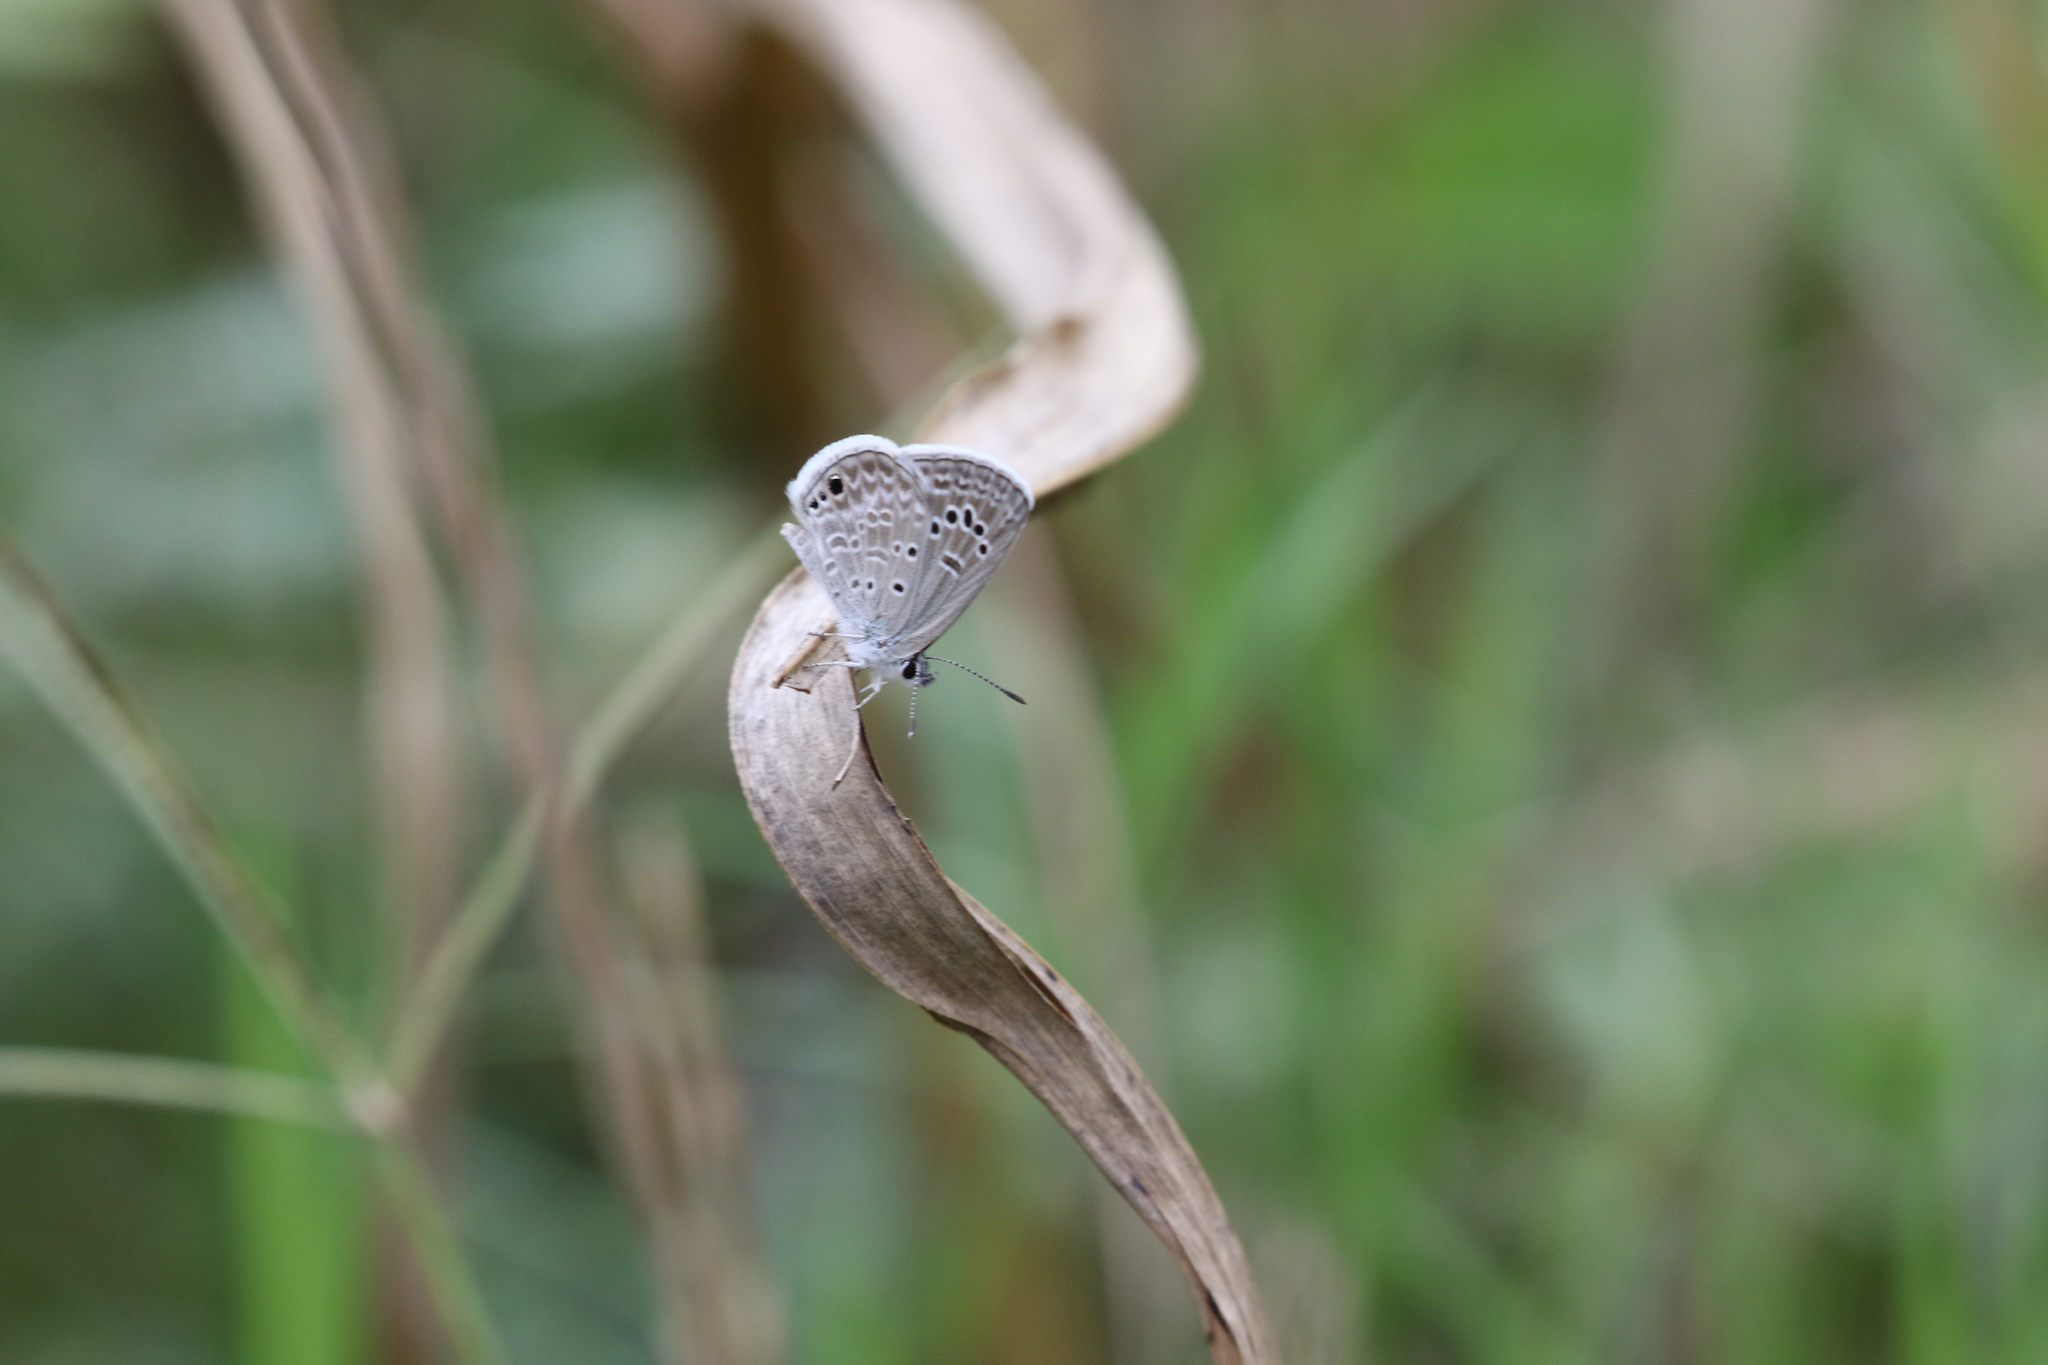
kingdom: Animalia
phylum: Arthropoda
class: Insecta
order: Lepidoptera
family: Lycaenidae
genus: Echinargus
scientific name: Echinargus isola
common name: Reakirt's blue
